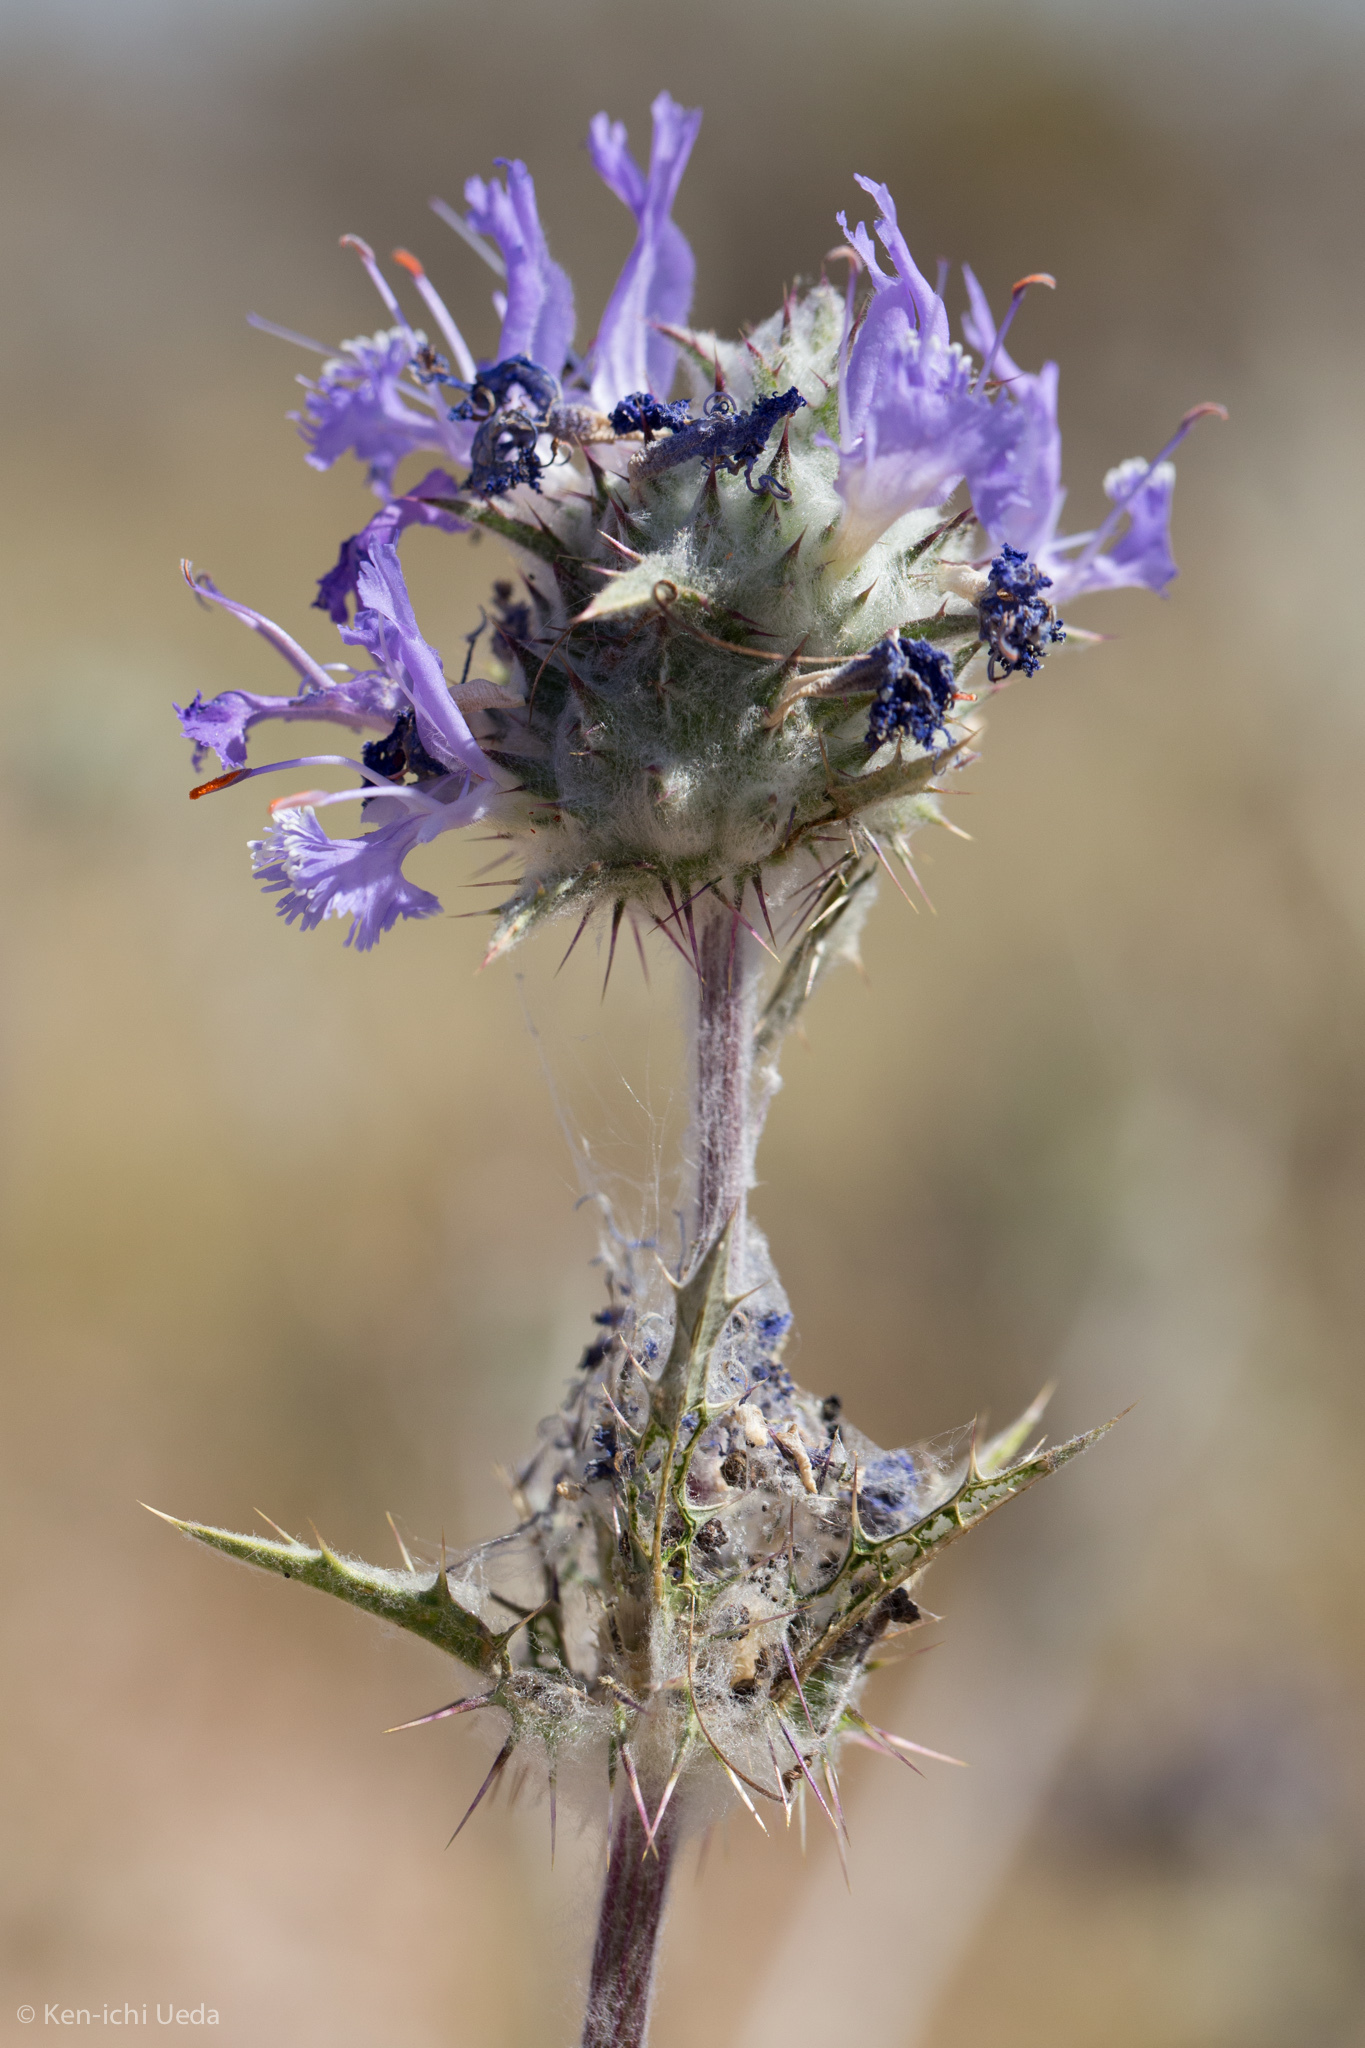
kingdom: Plantae
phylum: Tracheophyta
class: Magnoliopsida
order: Lamiales
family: Lamiaceae
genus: Salvia
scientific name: Salvia carduacea
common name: Thistle sage
